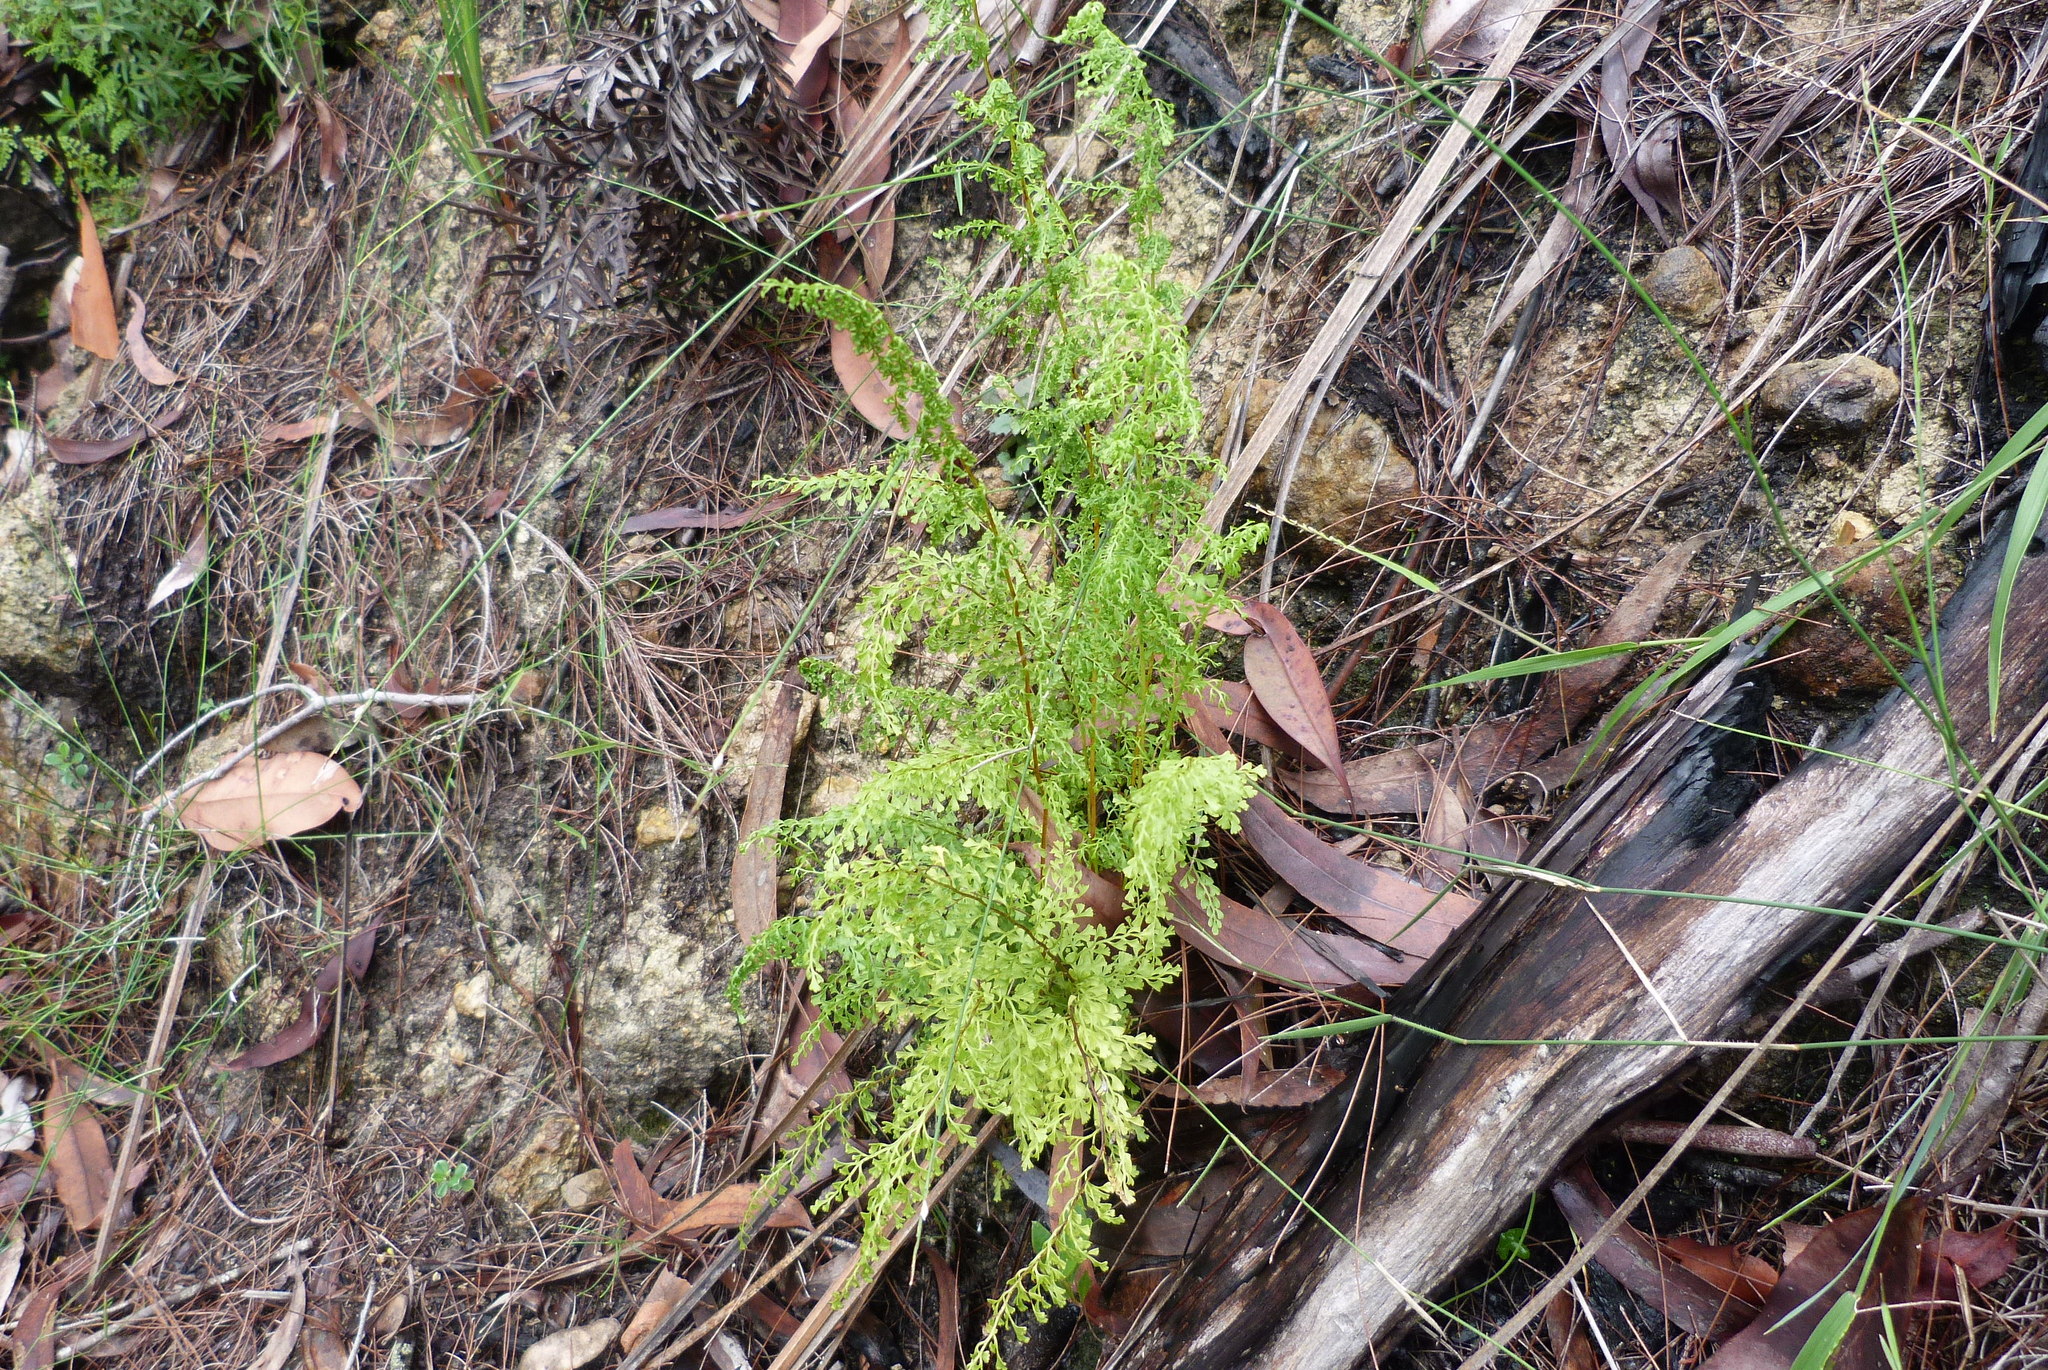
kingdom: Plantae
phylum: Tracheophyta
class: Polypodiopsida
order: Polypodiales
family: Lindsaeaceae
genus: Lindsaea
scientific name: Lindsaea microphylla
